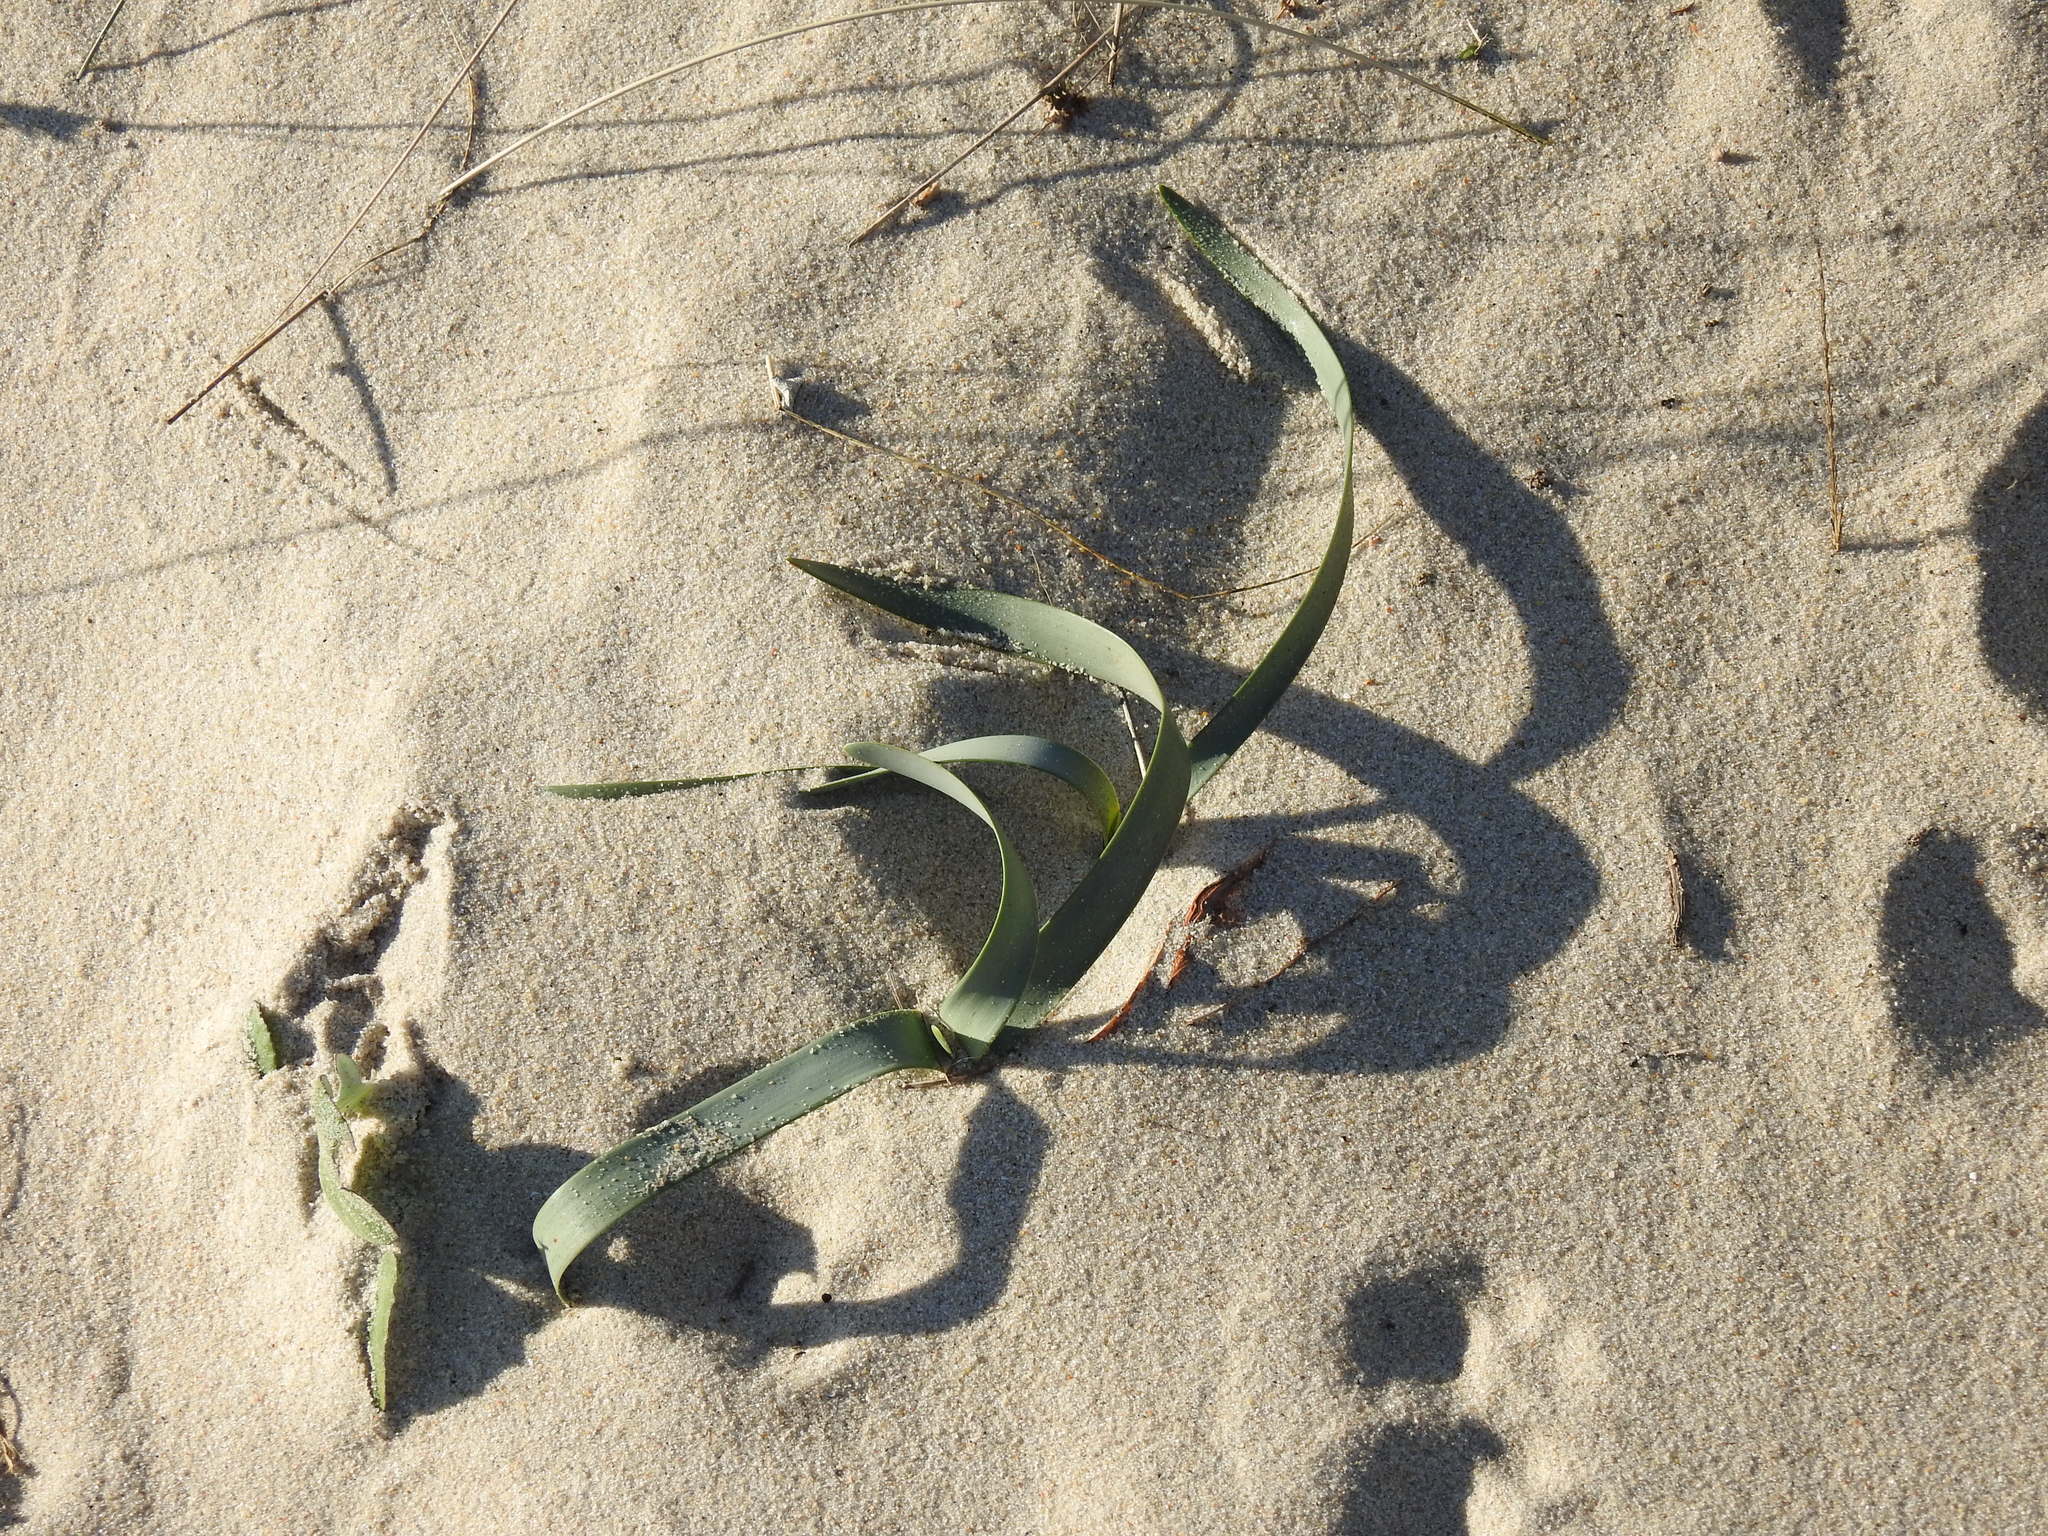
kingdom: Plantae
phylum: Tracheophyta
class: Liliopsida
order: Asparagales
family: Amaryllidaceae
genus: Pancratium
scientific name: Pancratium maritimum
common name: Sea-daffodil
